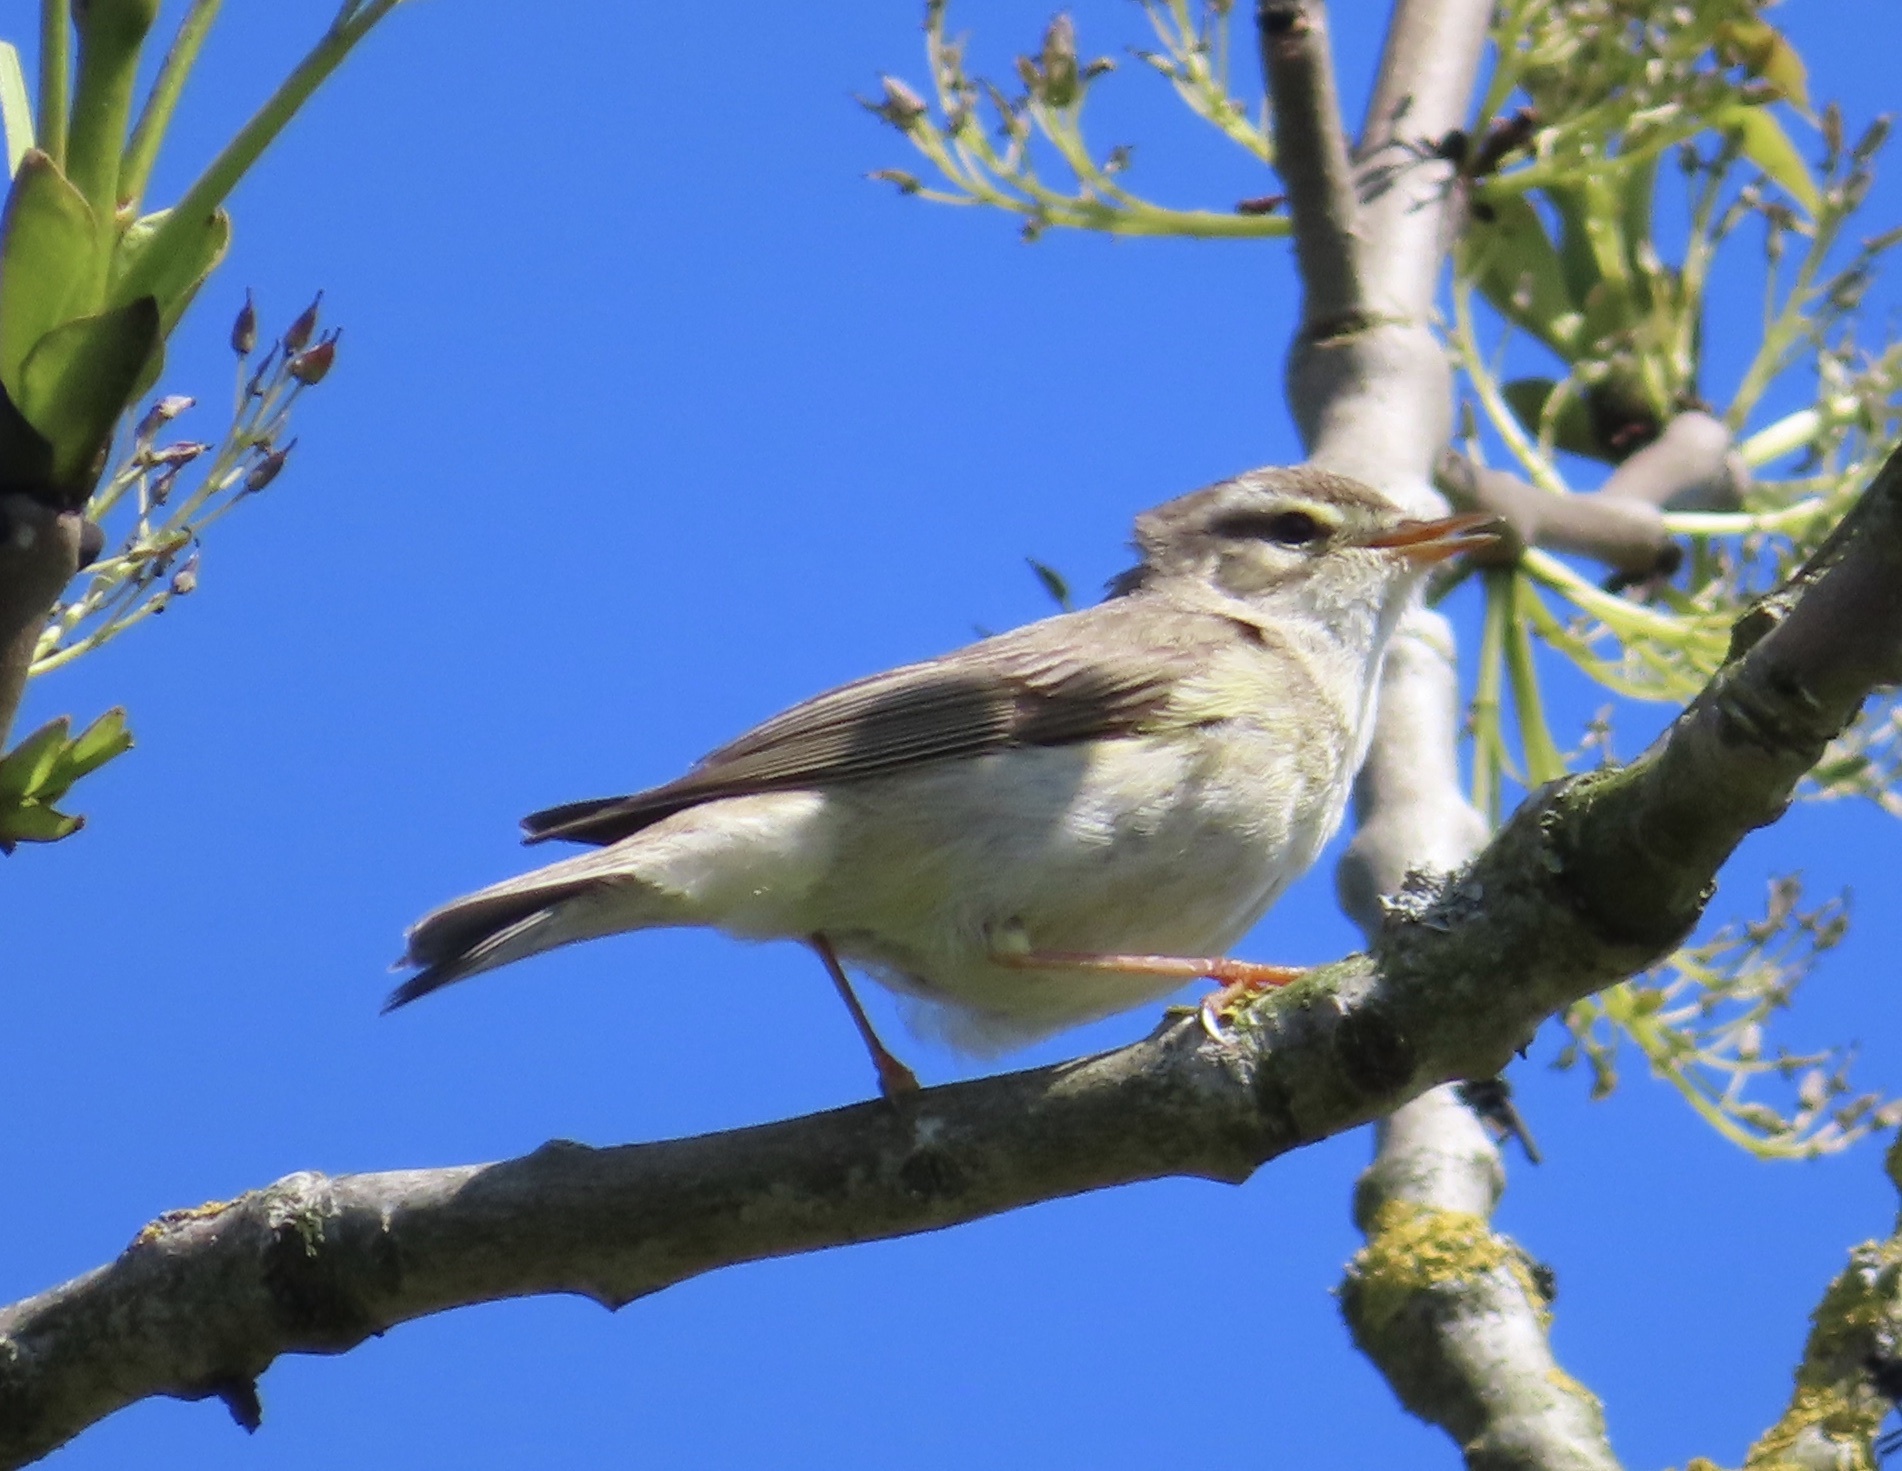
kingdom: Animalia
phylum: Chordata
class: Aves
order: Passeriformes
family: Phylloscopidae
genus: Phylloscopus
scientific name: Phylloscopus trochilus
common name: Willow warbler
